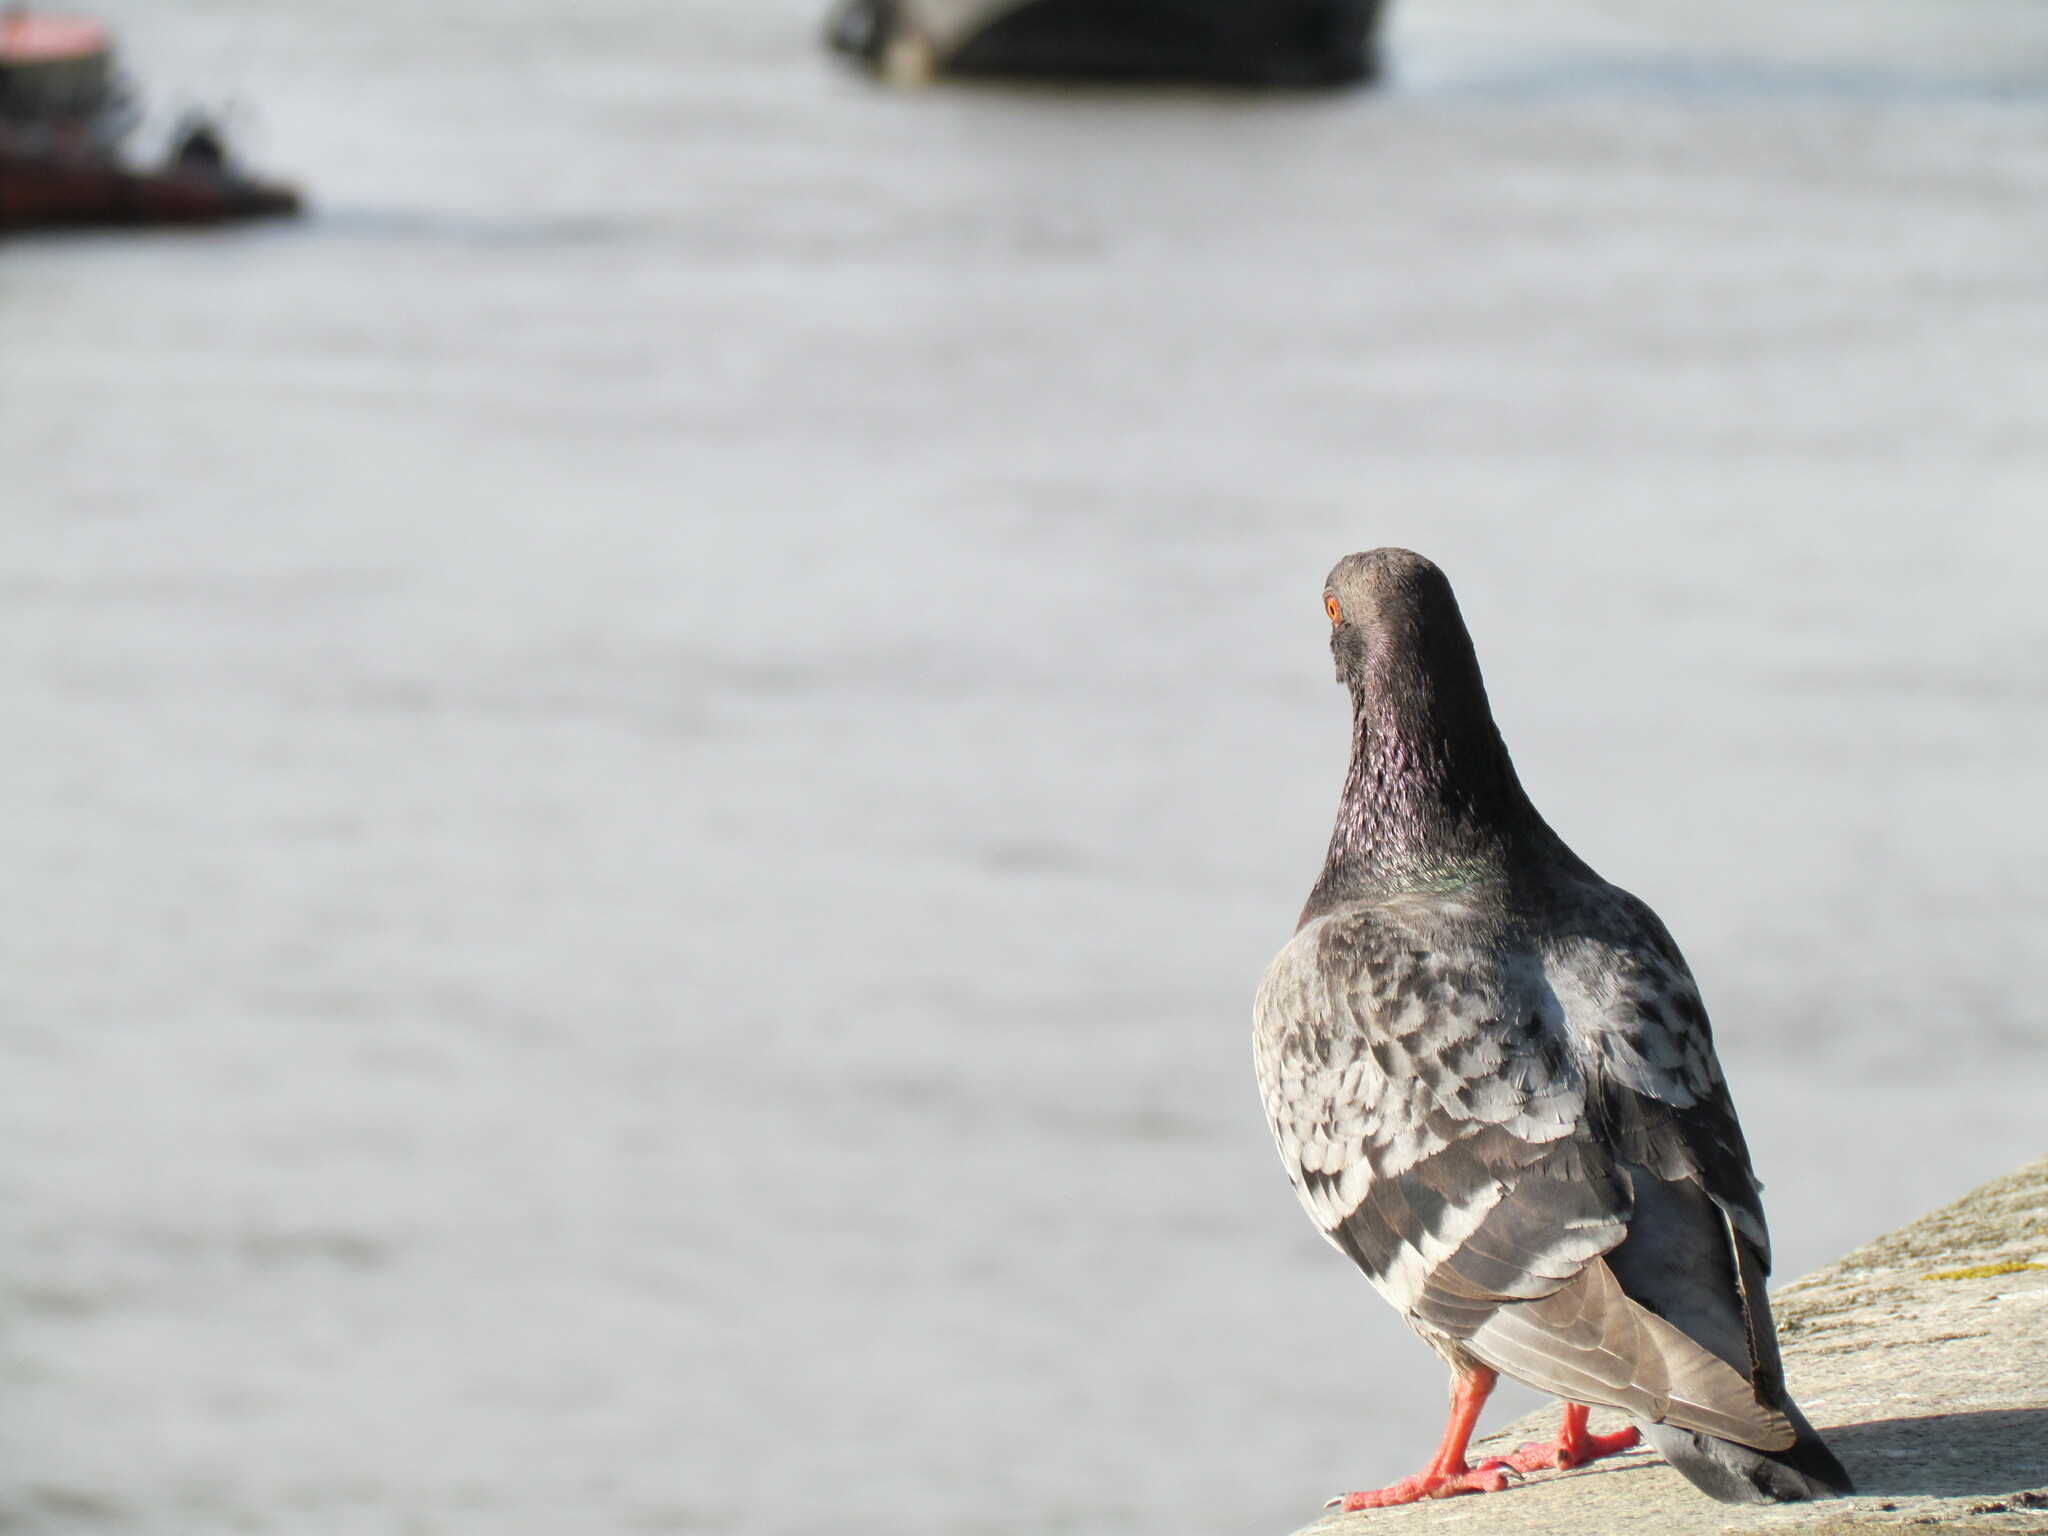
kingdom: Animalia
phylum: Chordata
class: Aves
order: Columbiformes
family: Columbidae
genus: Columba
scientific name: Columba livia
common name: Rock pigeon
